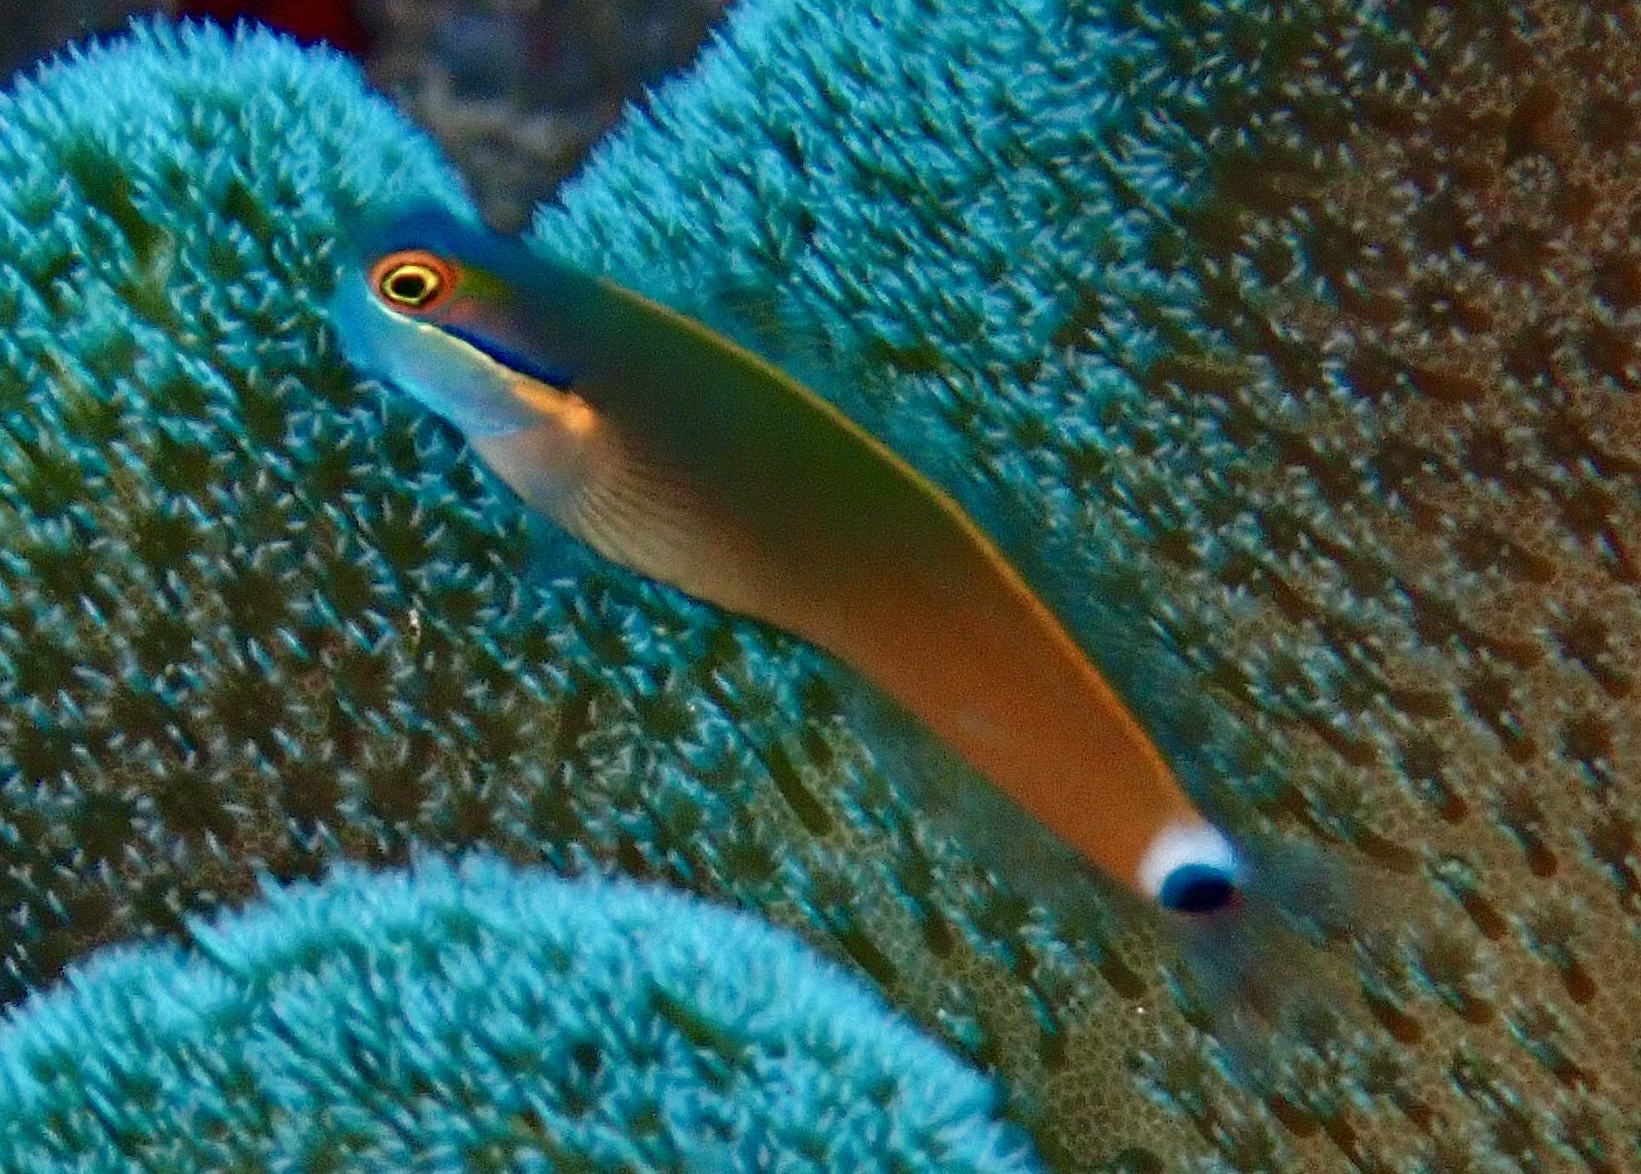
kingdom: Animalia
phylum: Chordata
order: Perciformes
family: Blenniidae
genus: Ecsenius
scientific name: Ecsenius stigmatura
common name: Tail-spot combtooth-blenny
